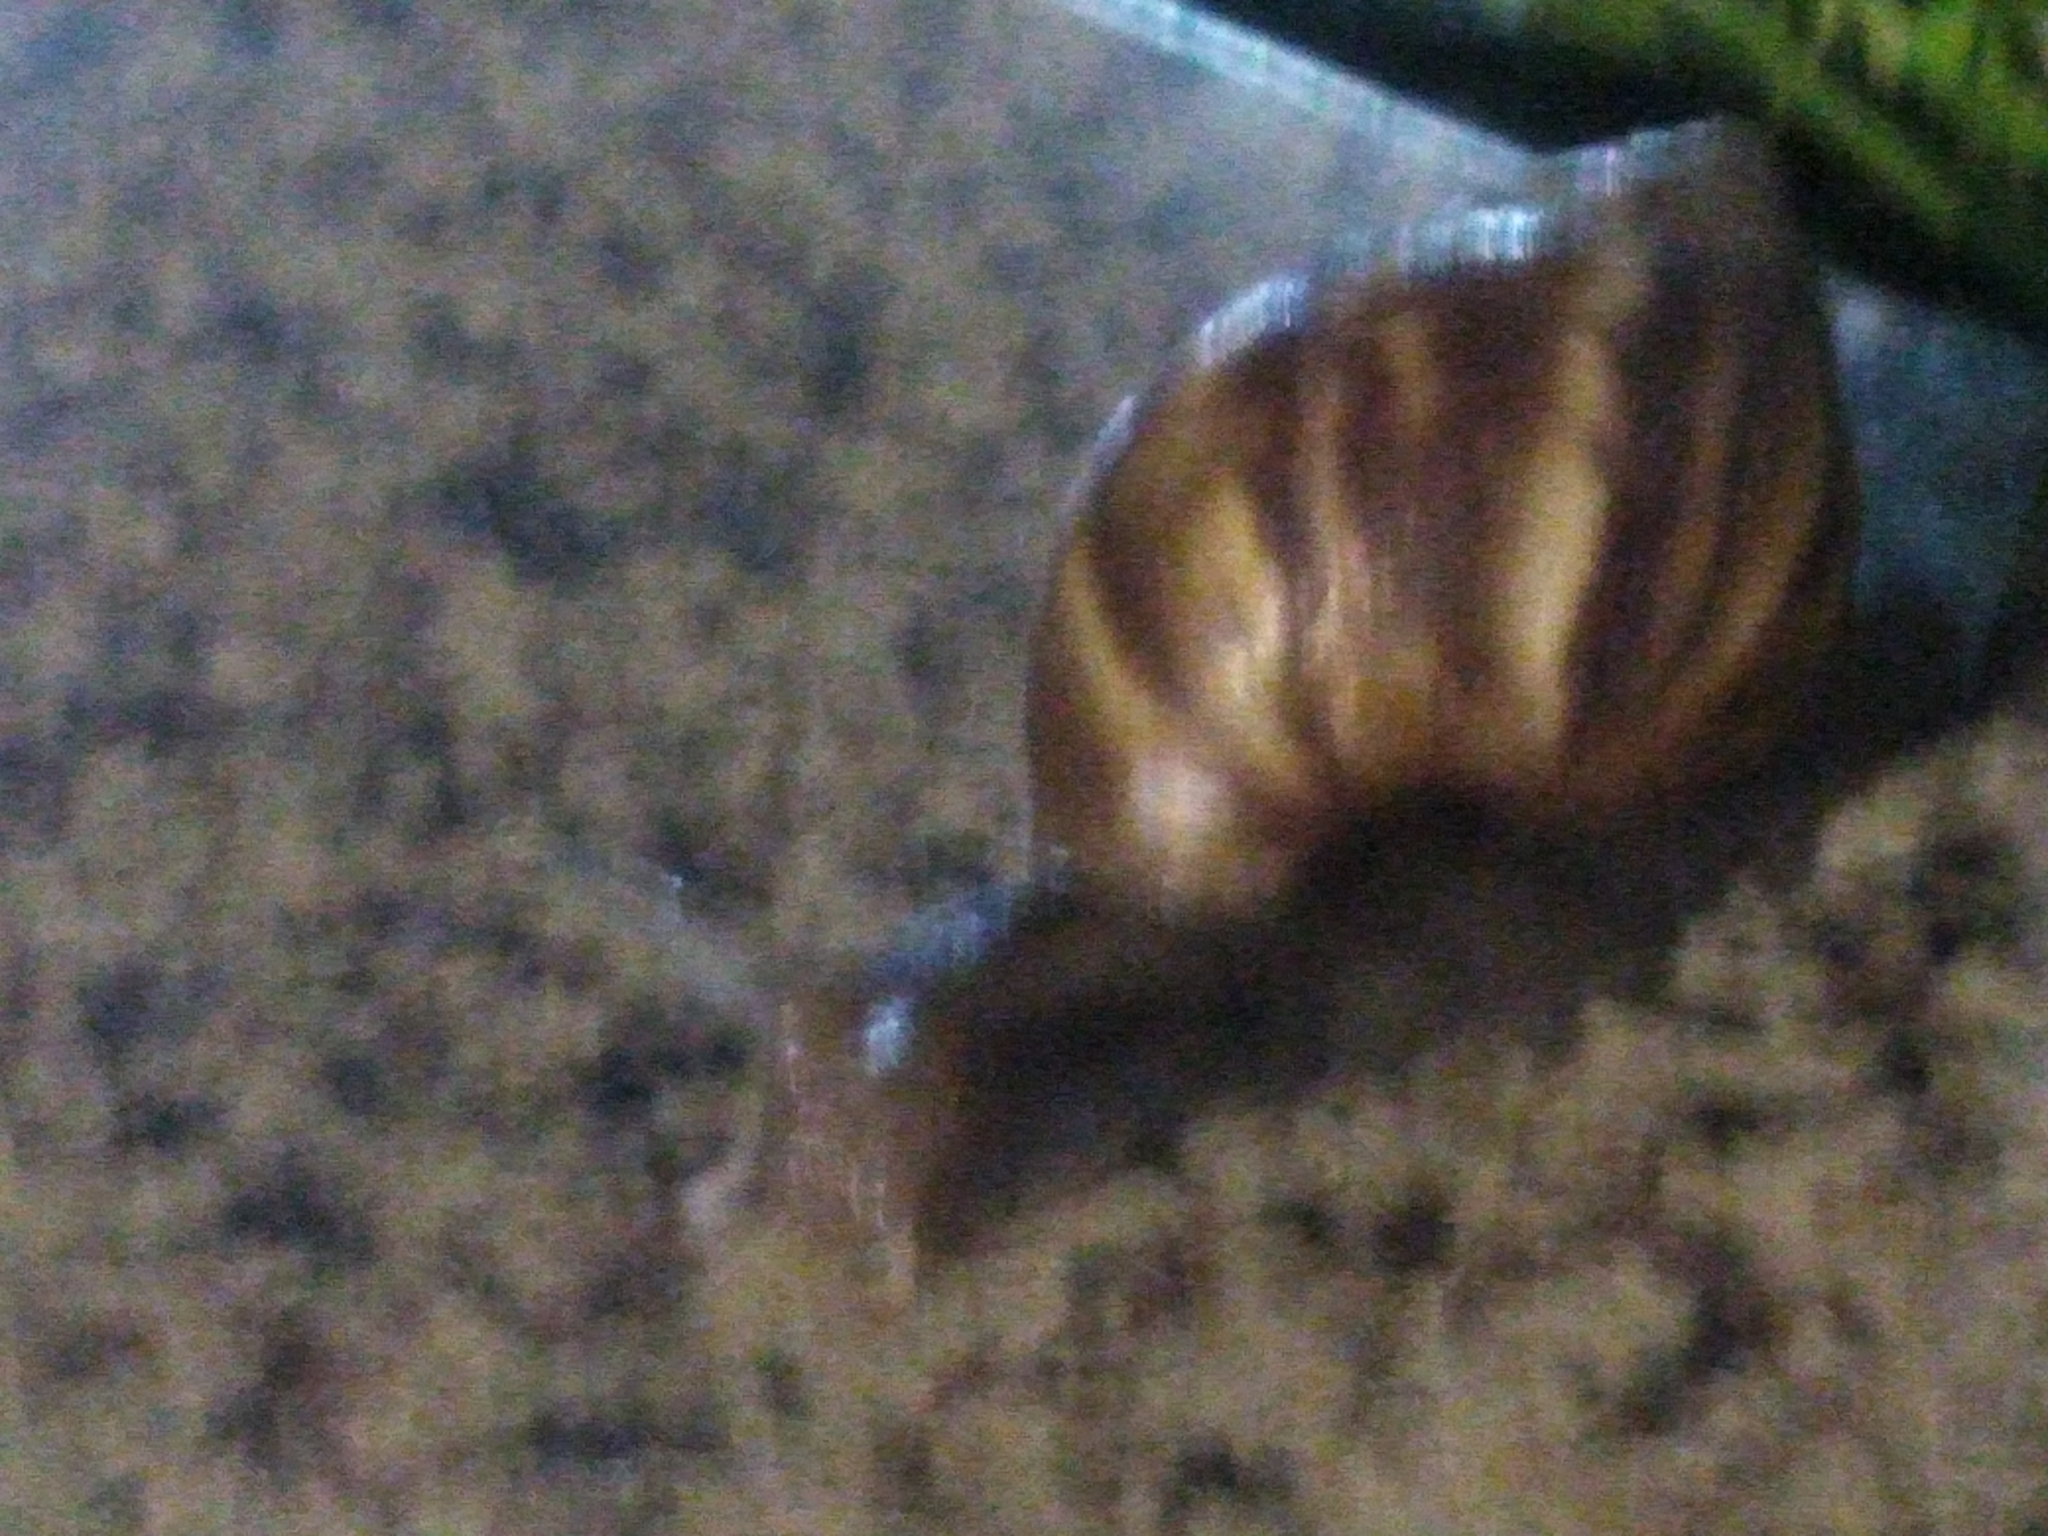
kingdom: Animalia
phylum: Mollusca
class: Gastropoda
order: Stylommatophora
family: Achatinidae
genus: Lissachatina
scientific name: Lissachatina fulica
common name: Giant african snail
